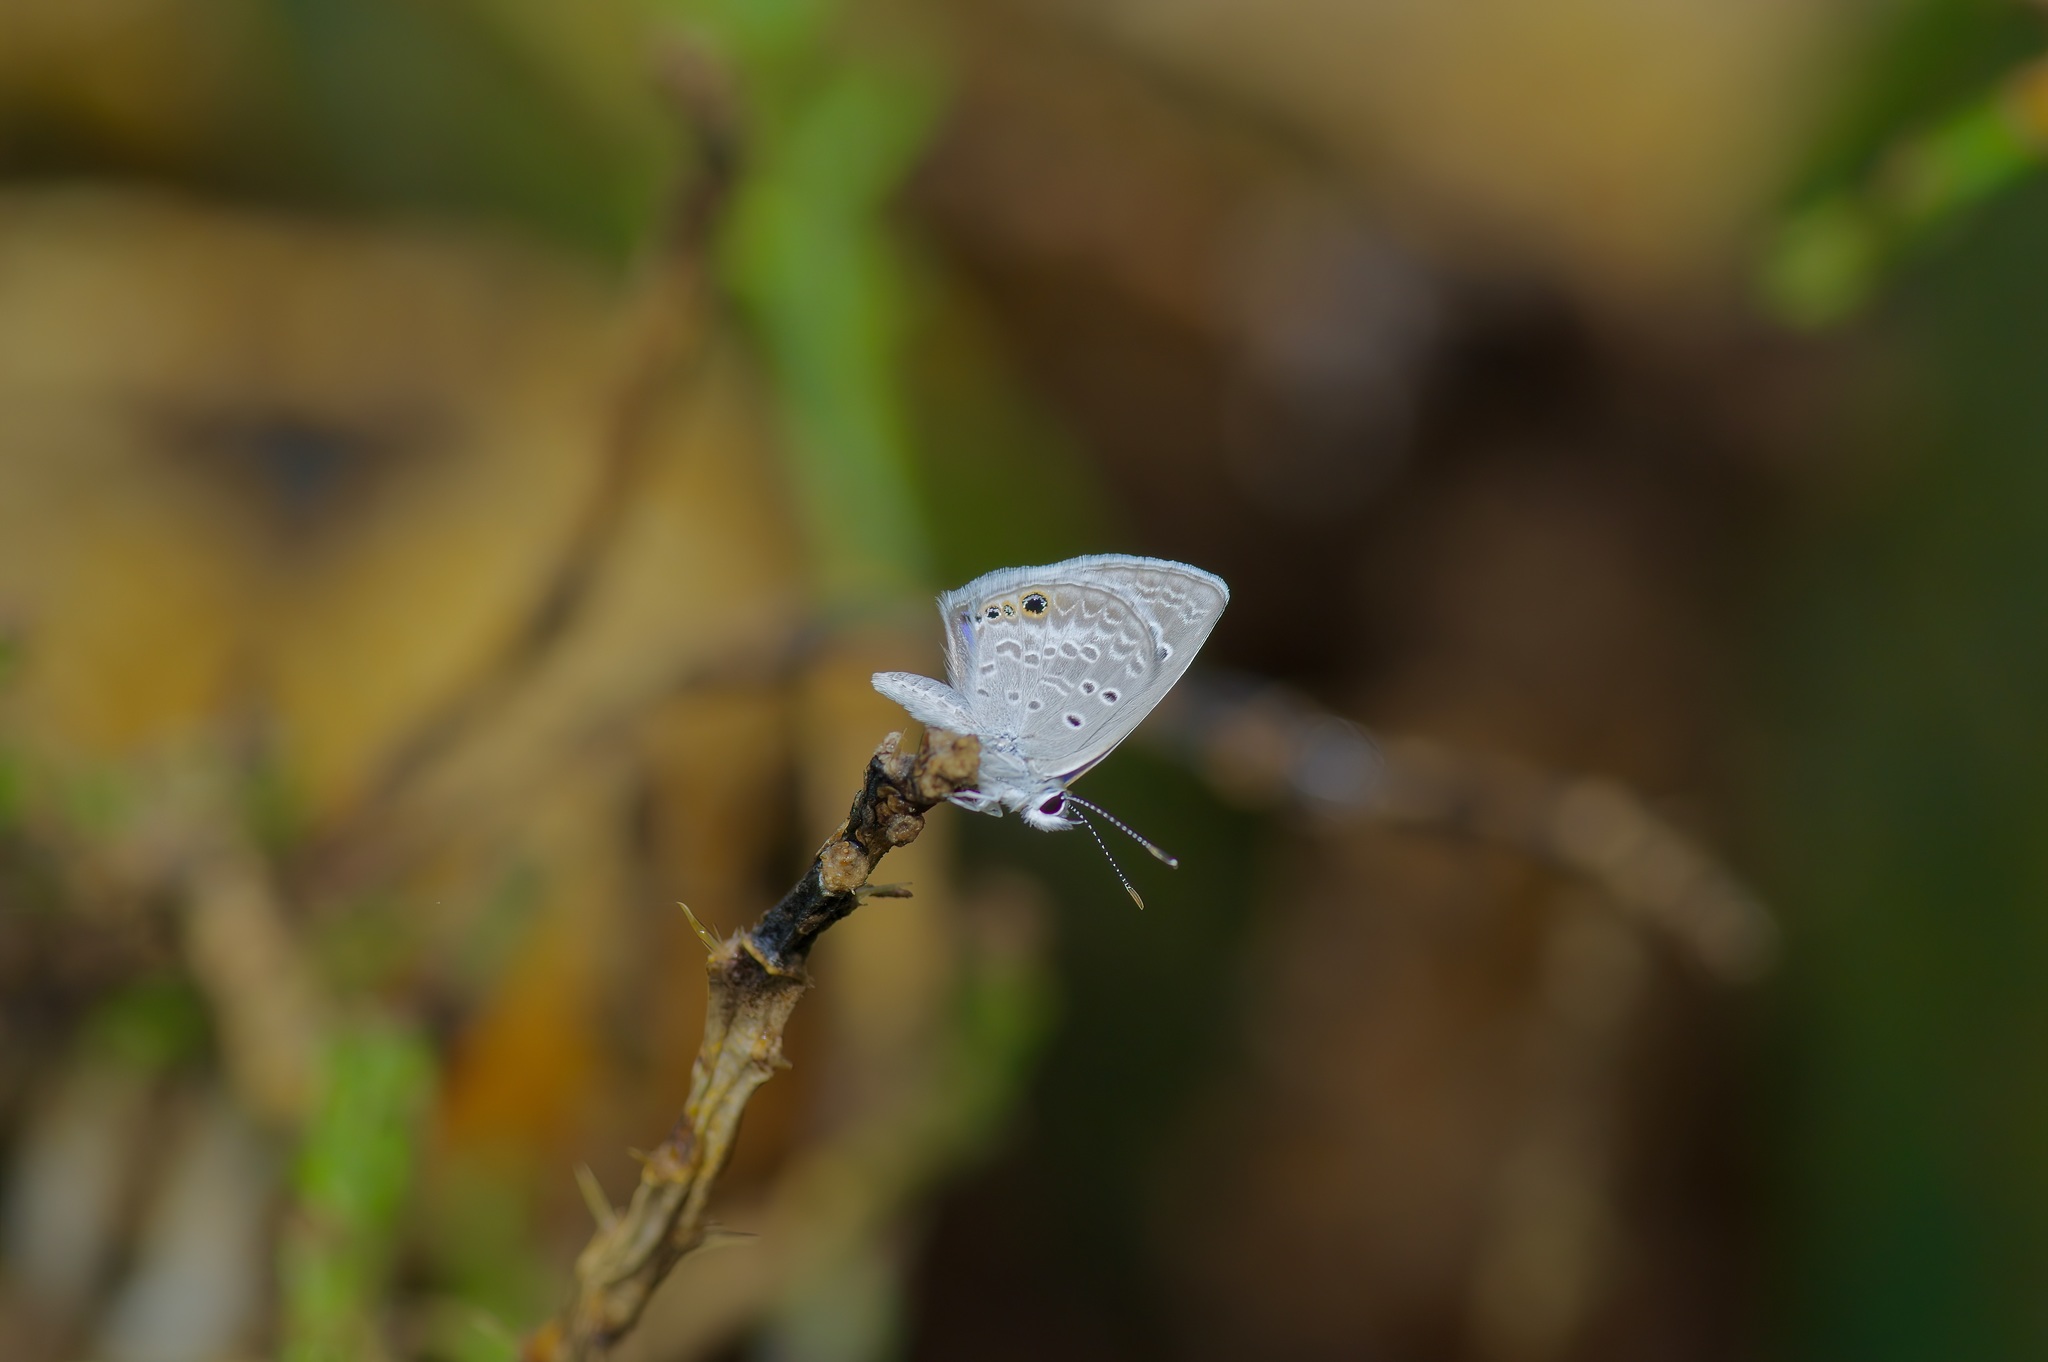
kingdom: Animalia
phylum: Arthropoda
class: Insecta
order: Lepidoptera
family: Lycaenidae
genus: Echinargus
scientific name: Echinargus isola
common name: Reakirt's blue
